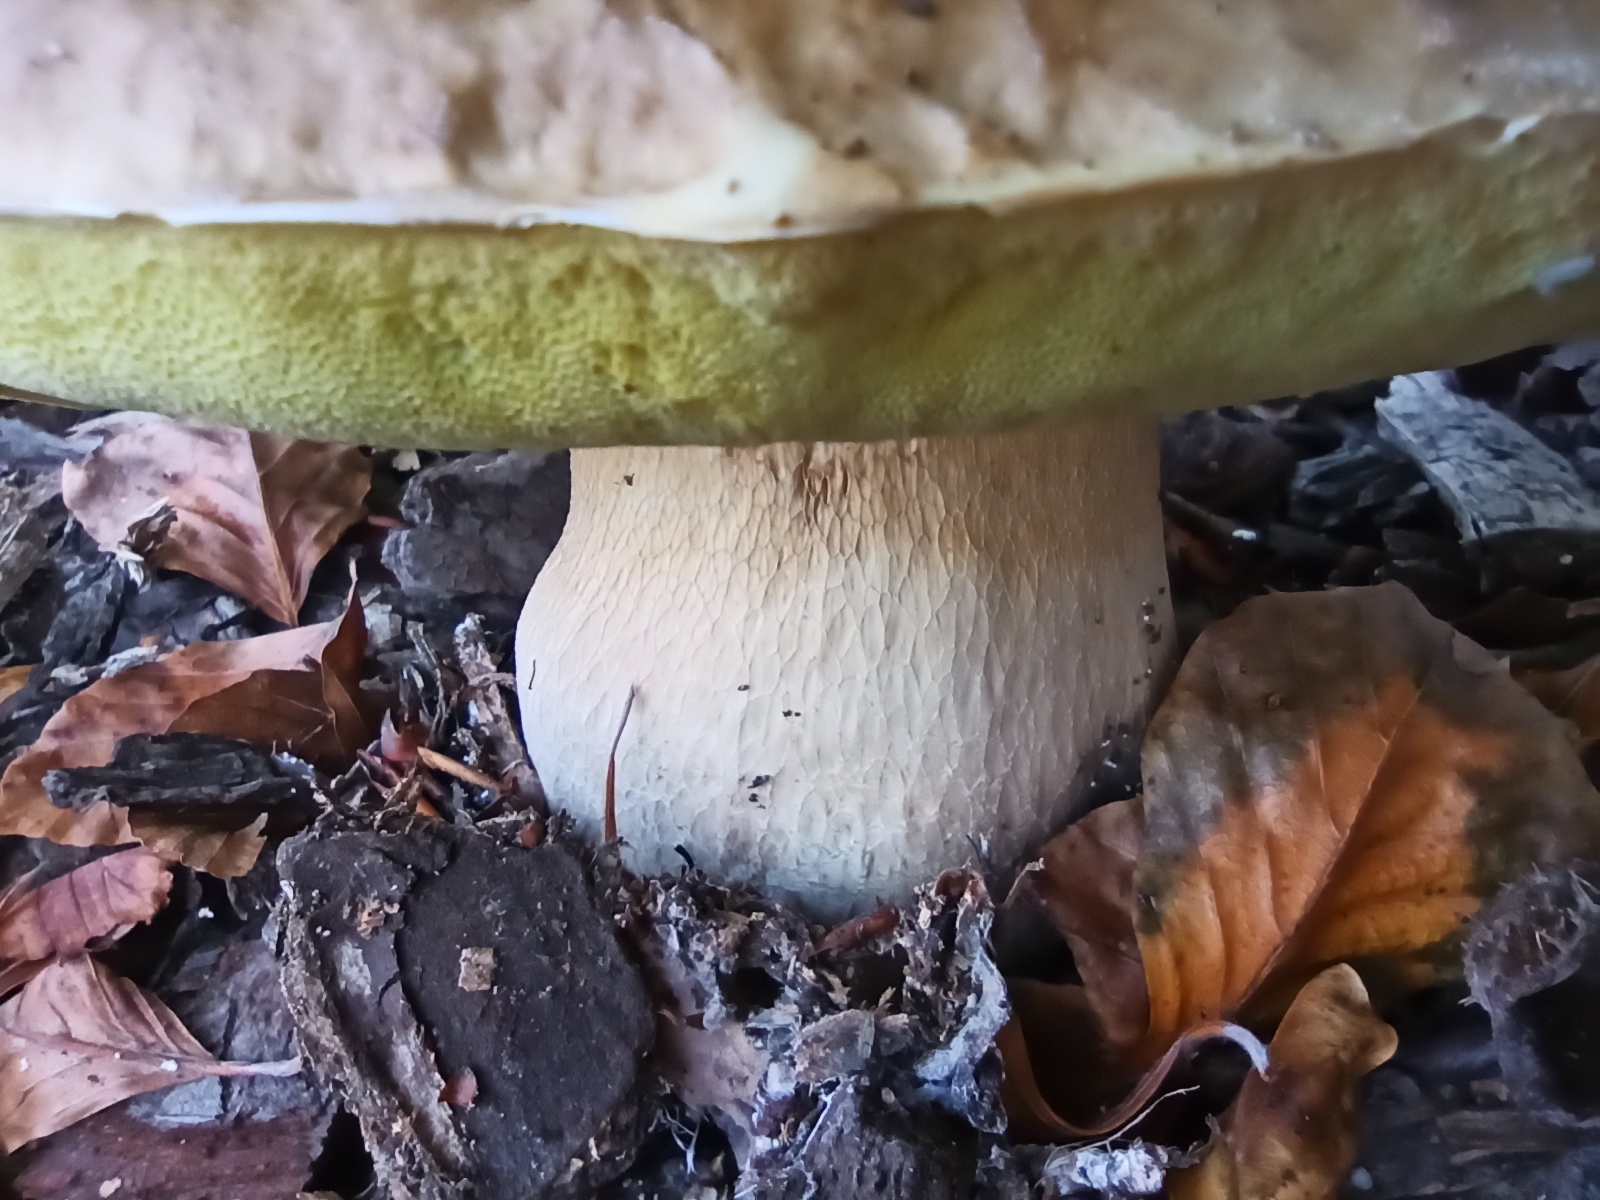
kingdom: Fungi
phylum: Basidiomycota
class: Agaricomycetes
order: Boletales
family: Boletaceae
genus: Boletus
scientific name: Boletus edulis
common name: Cep
